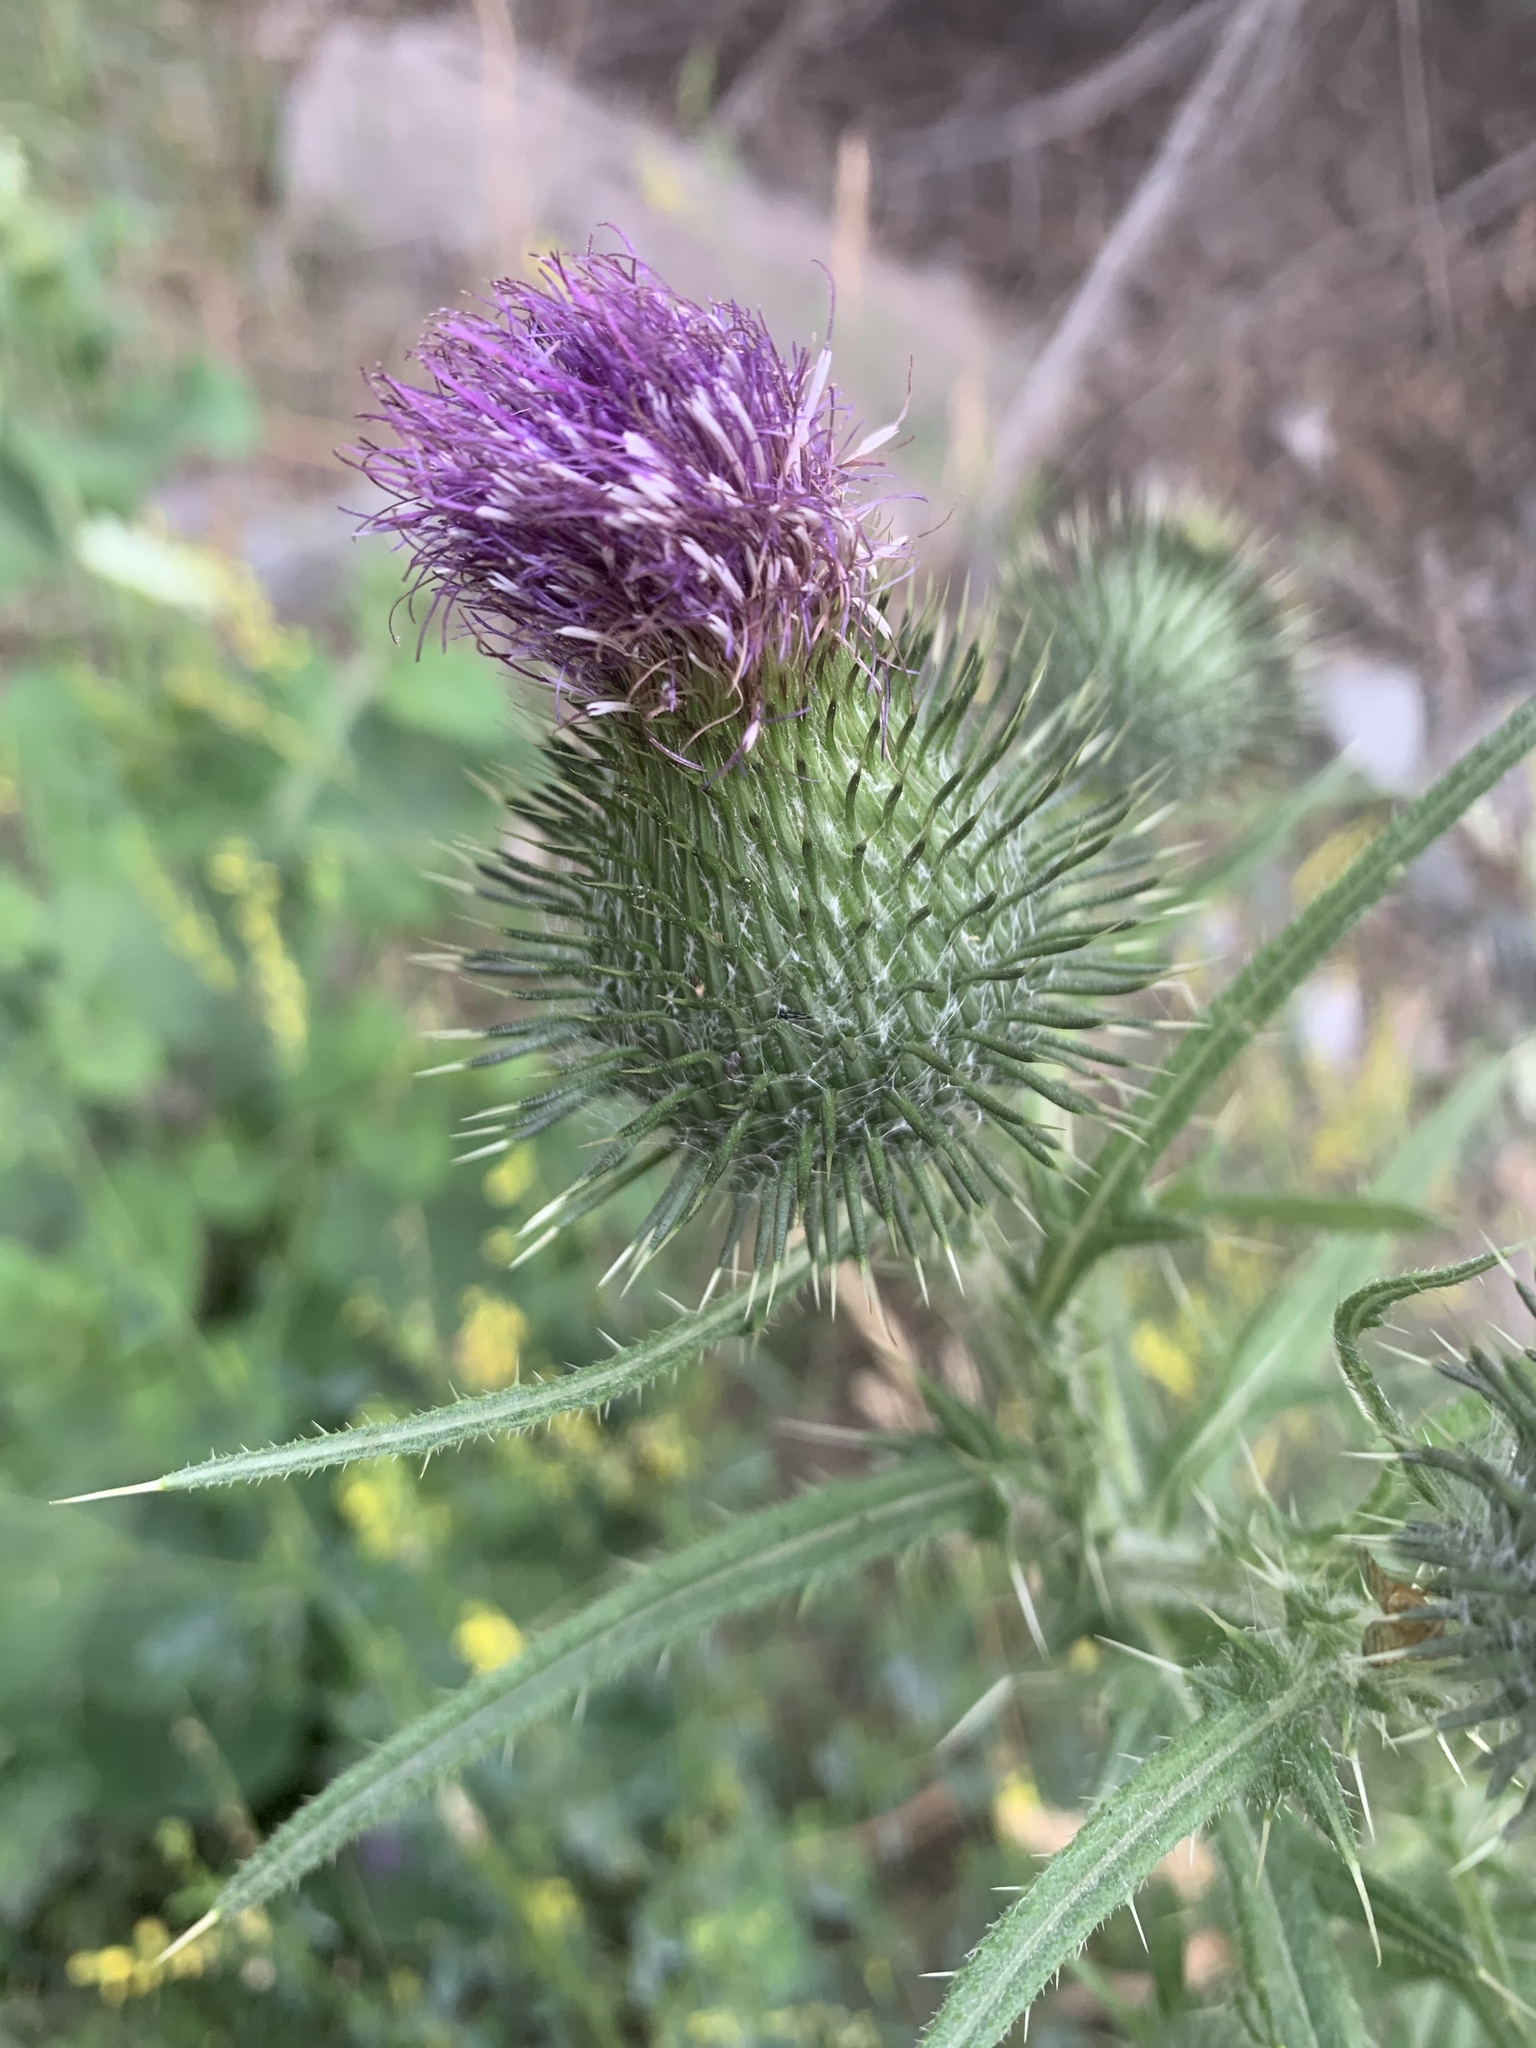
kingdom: Plantae
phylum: Tracheophyta
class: Magnoliopsida
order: Asterales
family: Asteraceae
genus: Cirsium
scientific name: Cirsium vulgare
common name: Bull thistle
